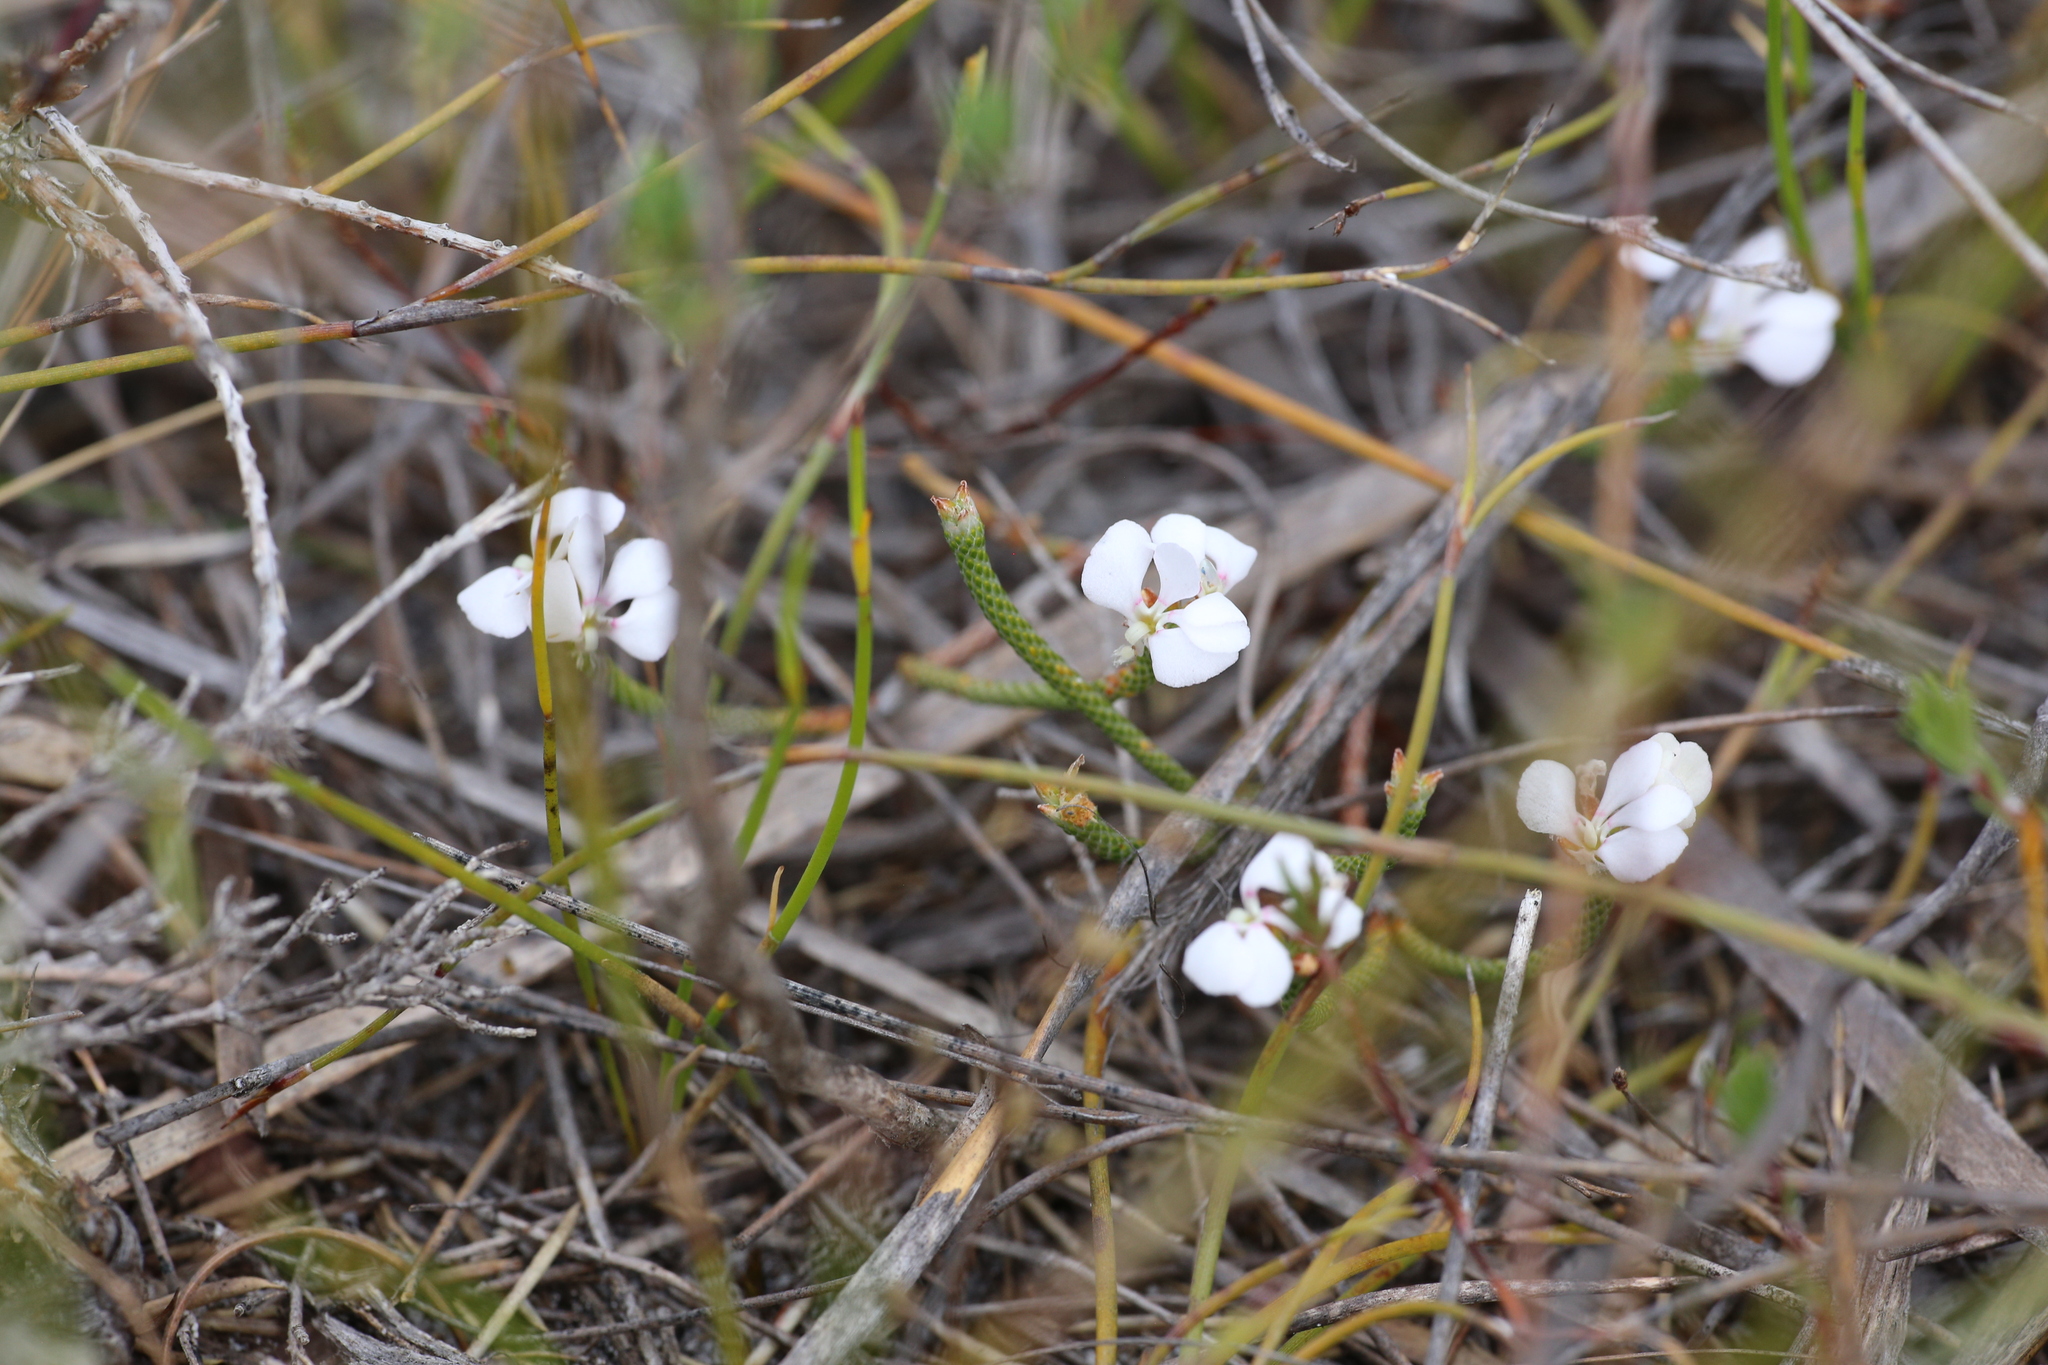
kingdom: Plantae
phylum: Tracheophyta
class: Magnoliopsida
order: Asterales
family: Stylidiaceae
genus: Stylidium
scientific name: Stylidium preissii
